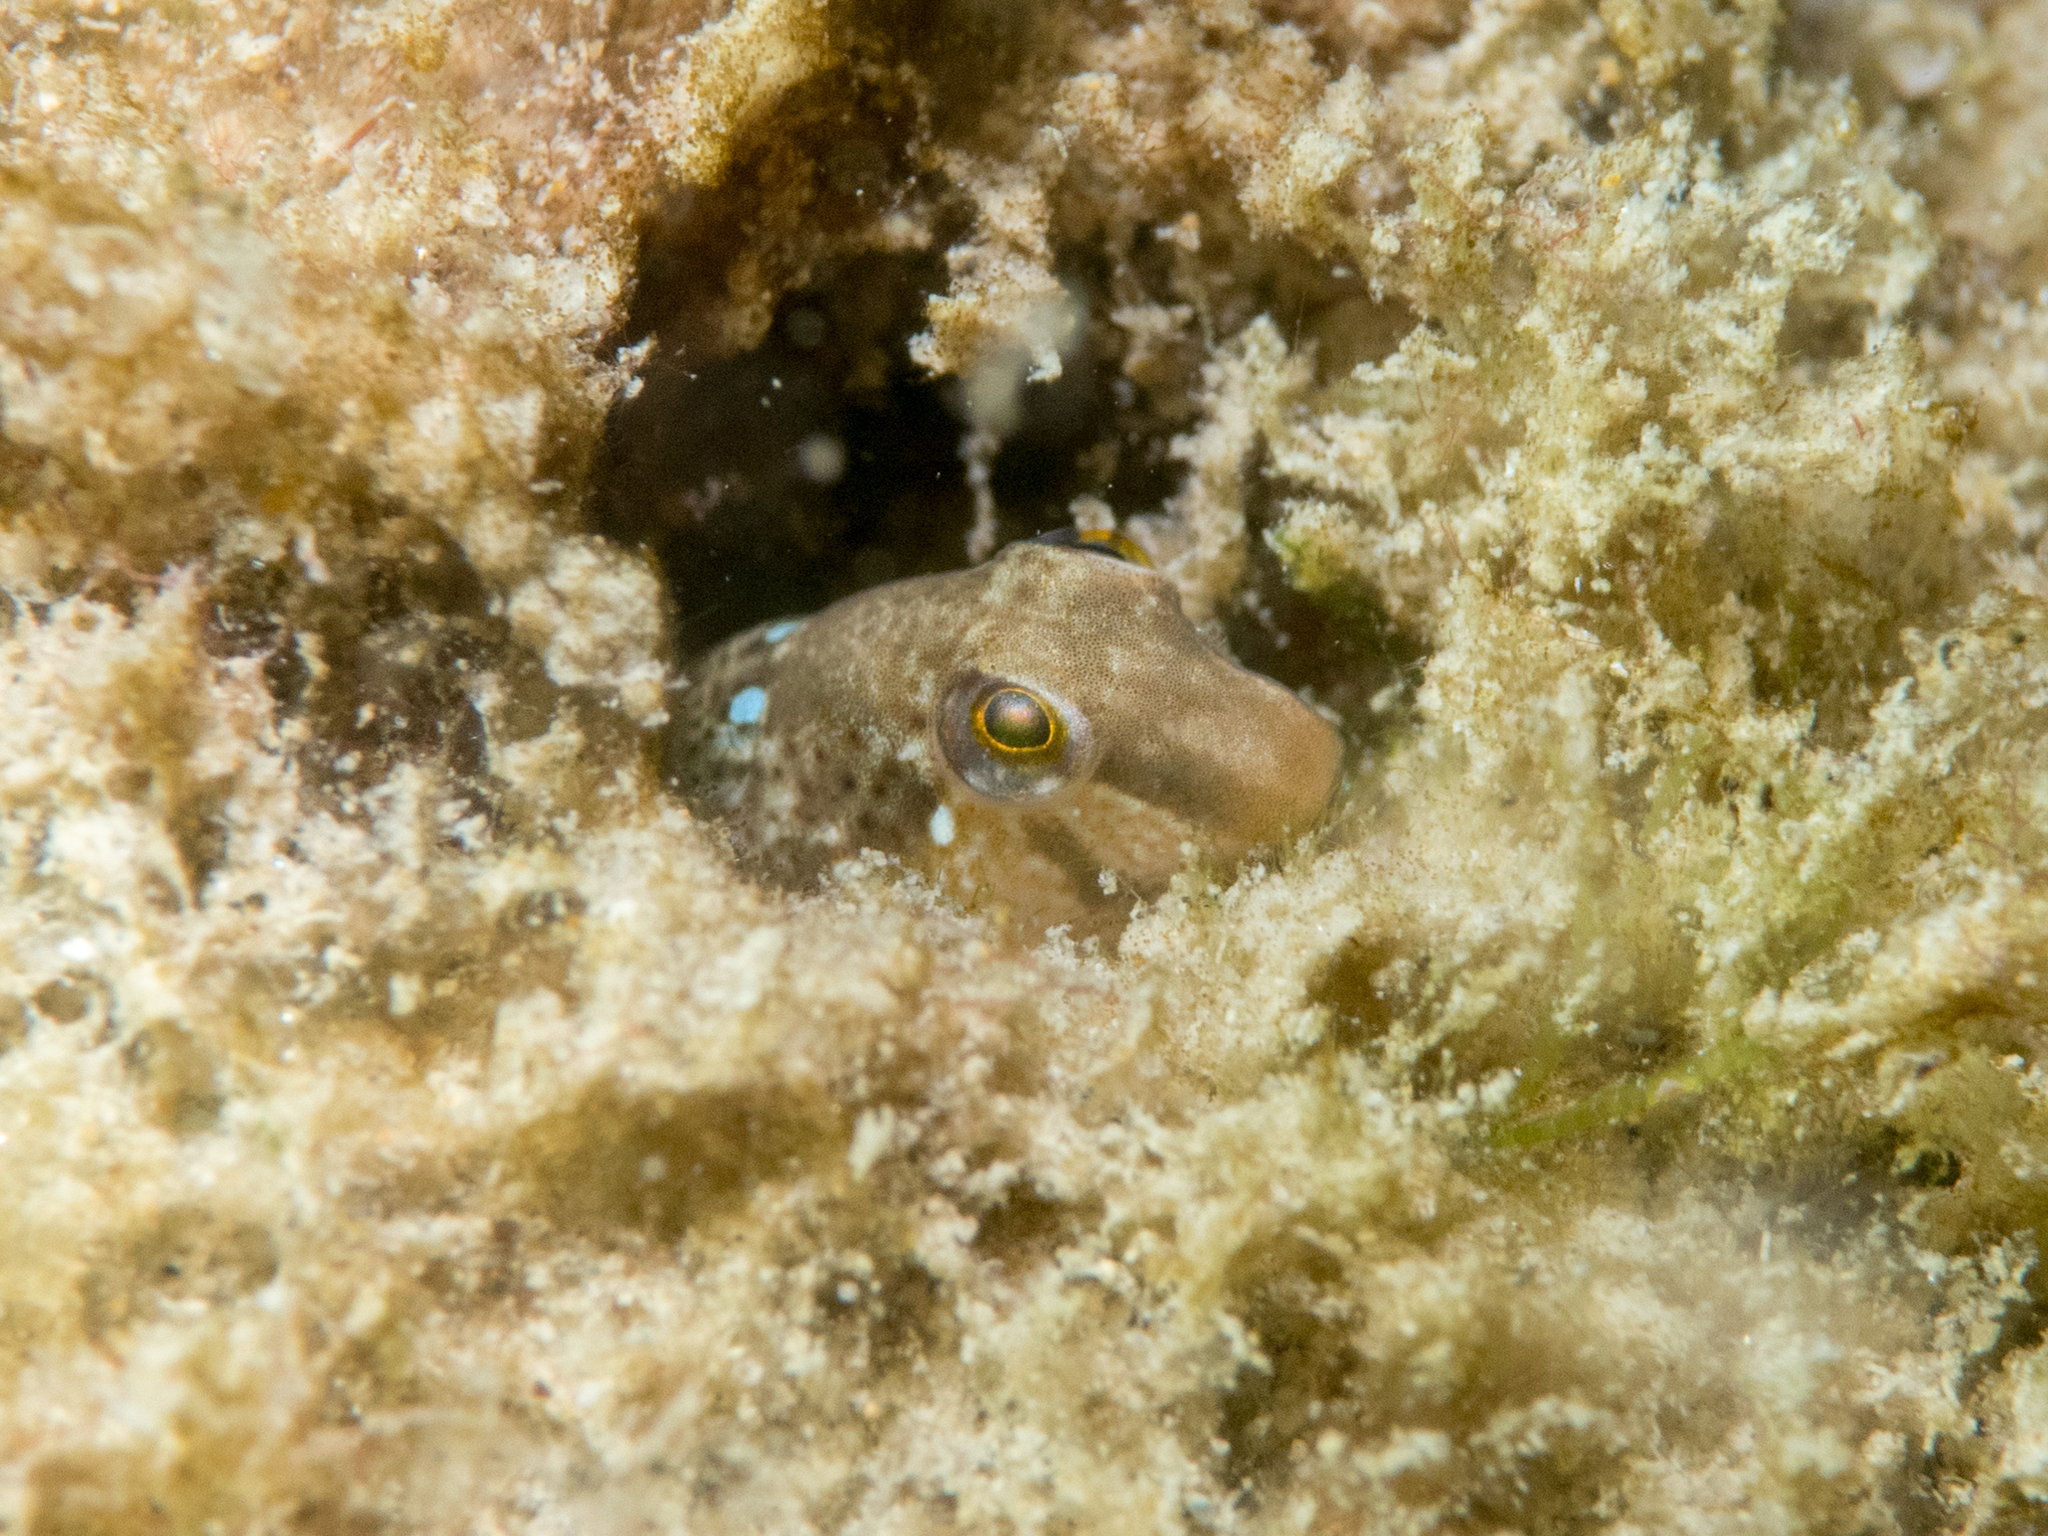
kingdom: Animalia
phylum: Chordata
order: Perciformes
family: Blenniidae
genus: Microlipophrys
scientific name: Microlipophrys dalmatinus
